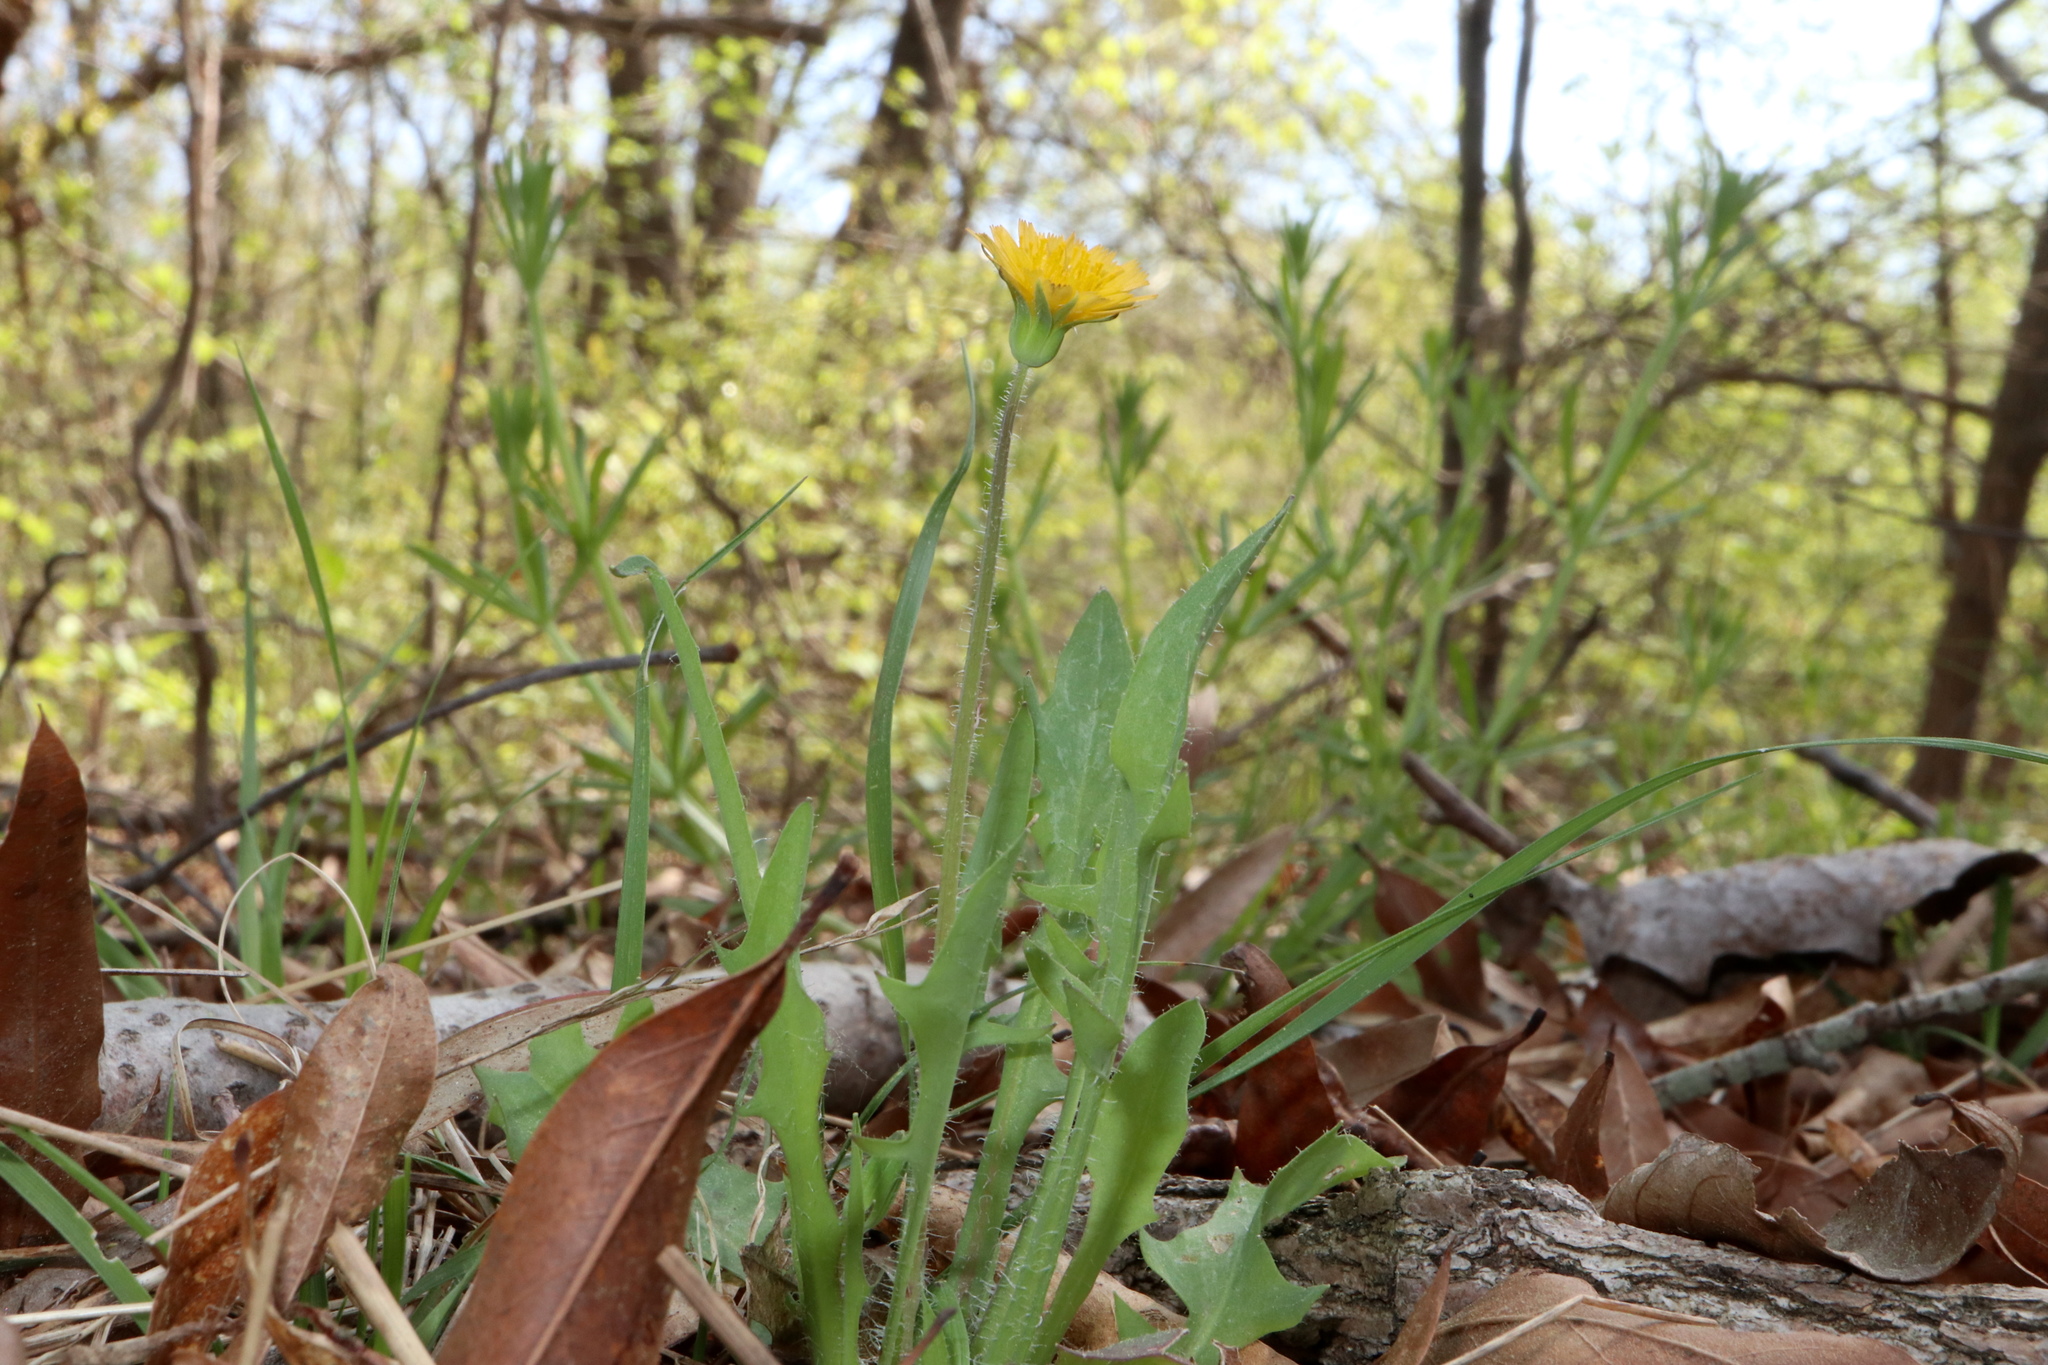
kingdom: Plantae
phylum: Tracheophyta
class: Magnoliopsida
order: Asterales
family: Asteraceae
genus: Krigia
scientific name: Krigia virginica
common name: Virginia dwarf-dandelion
